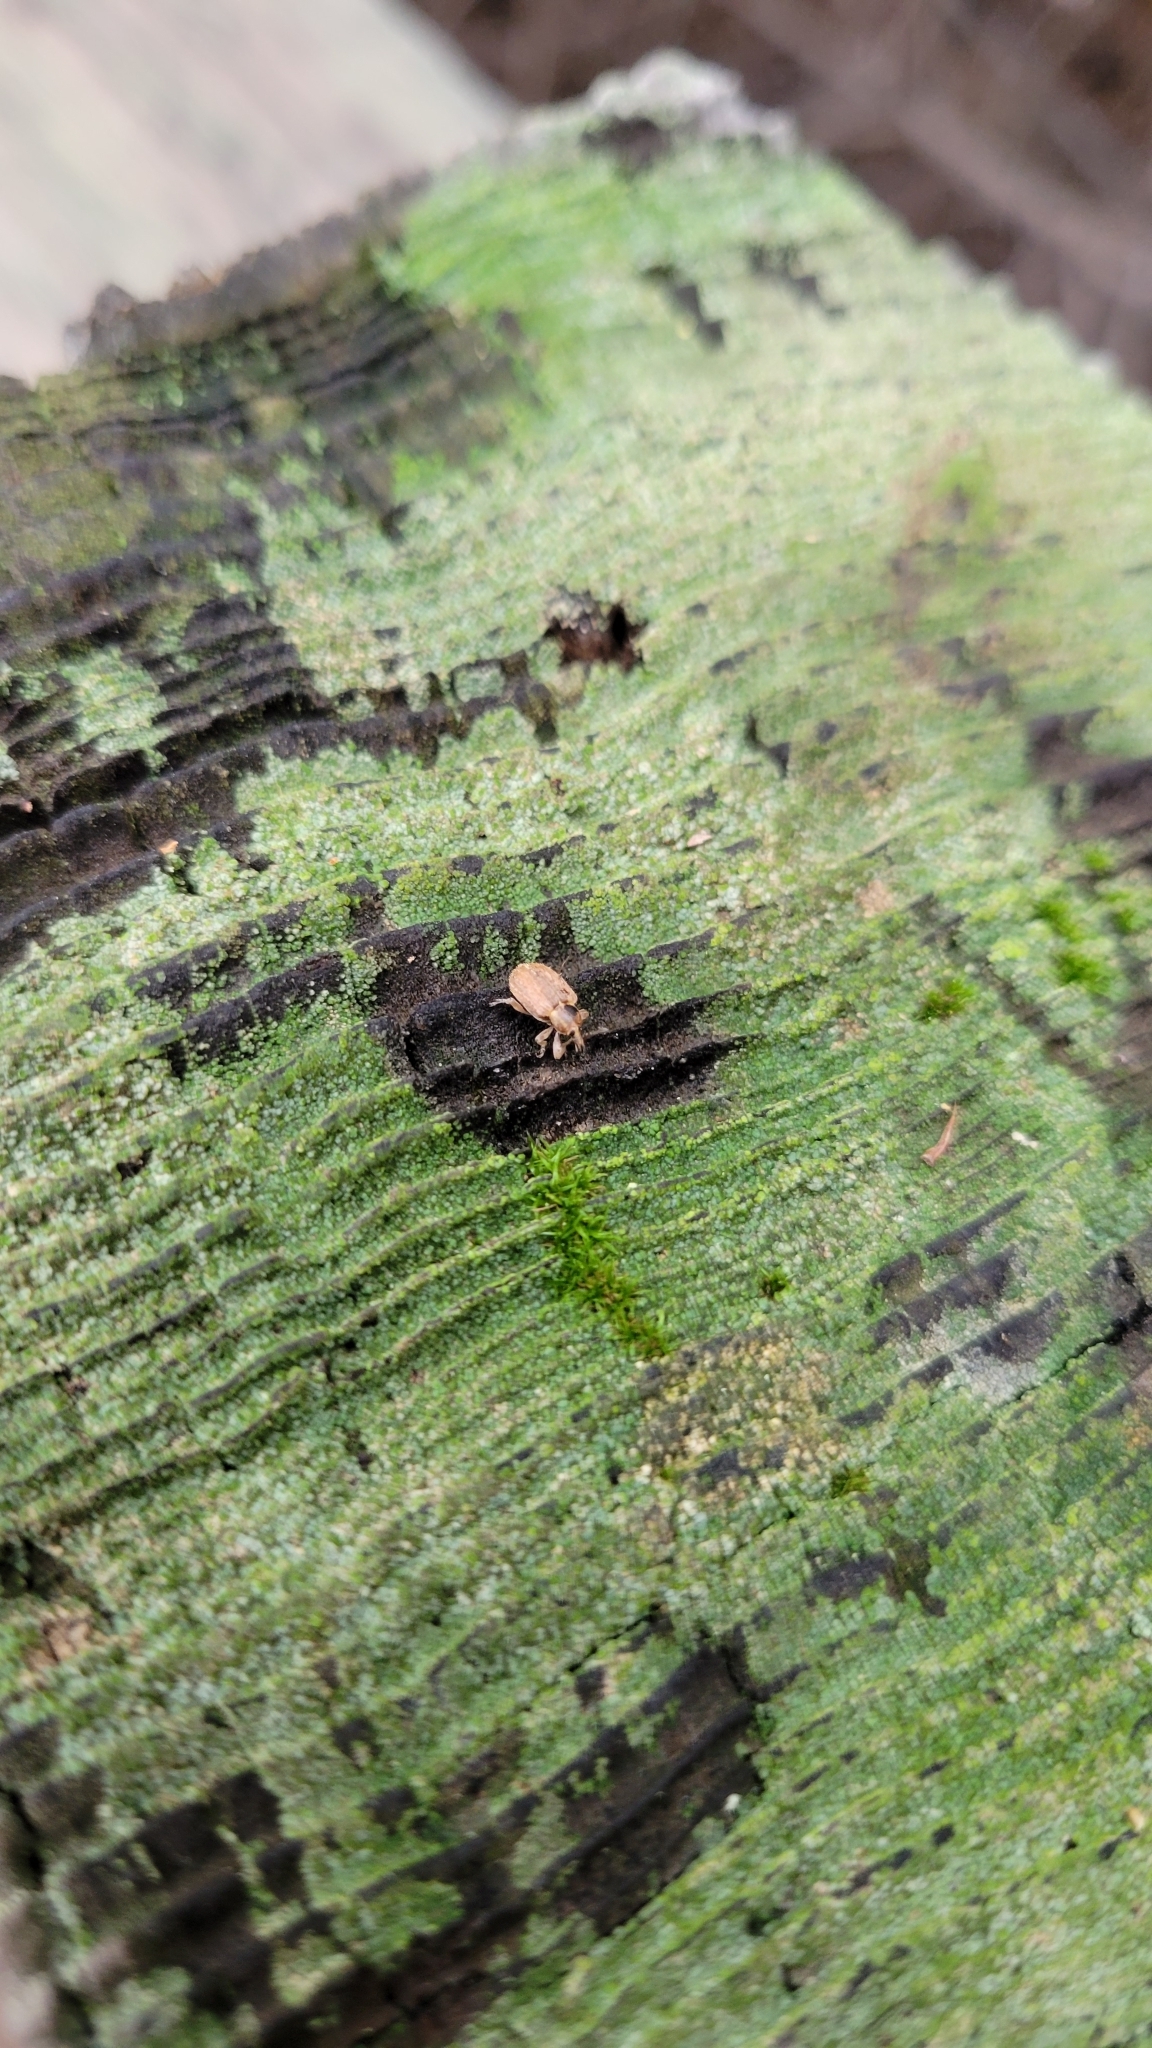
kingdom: Animalia
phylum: Arthropoda
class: Insecta
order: Coleoptera
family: Curculionidae
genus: Hypera
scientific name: Hypera postica
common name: Weevil
